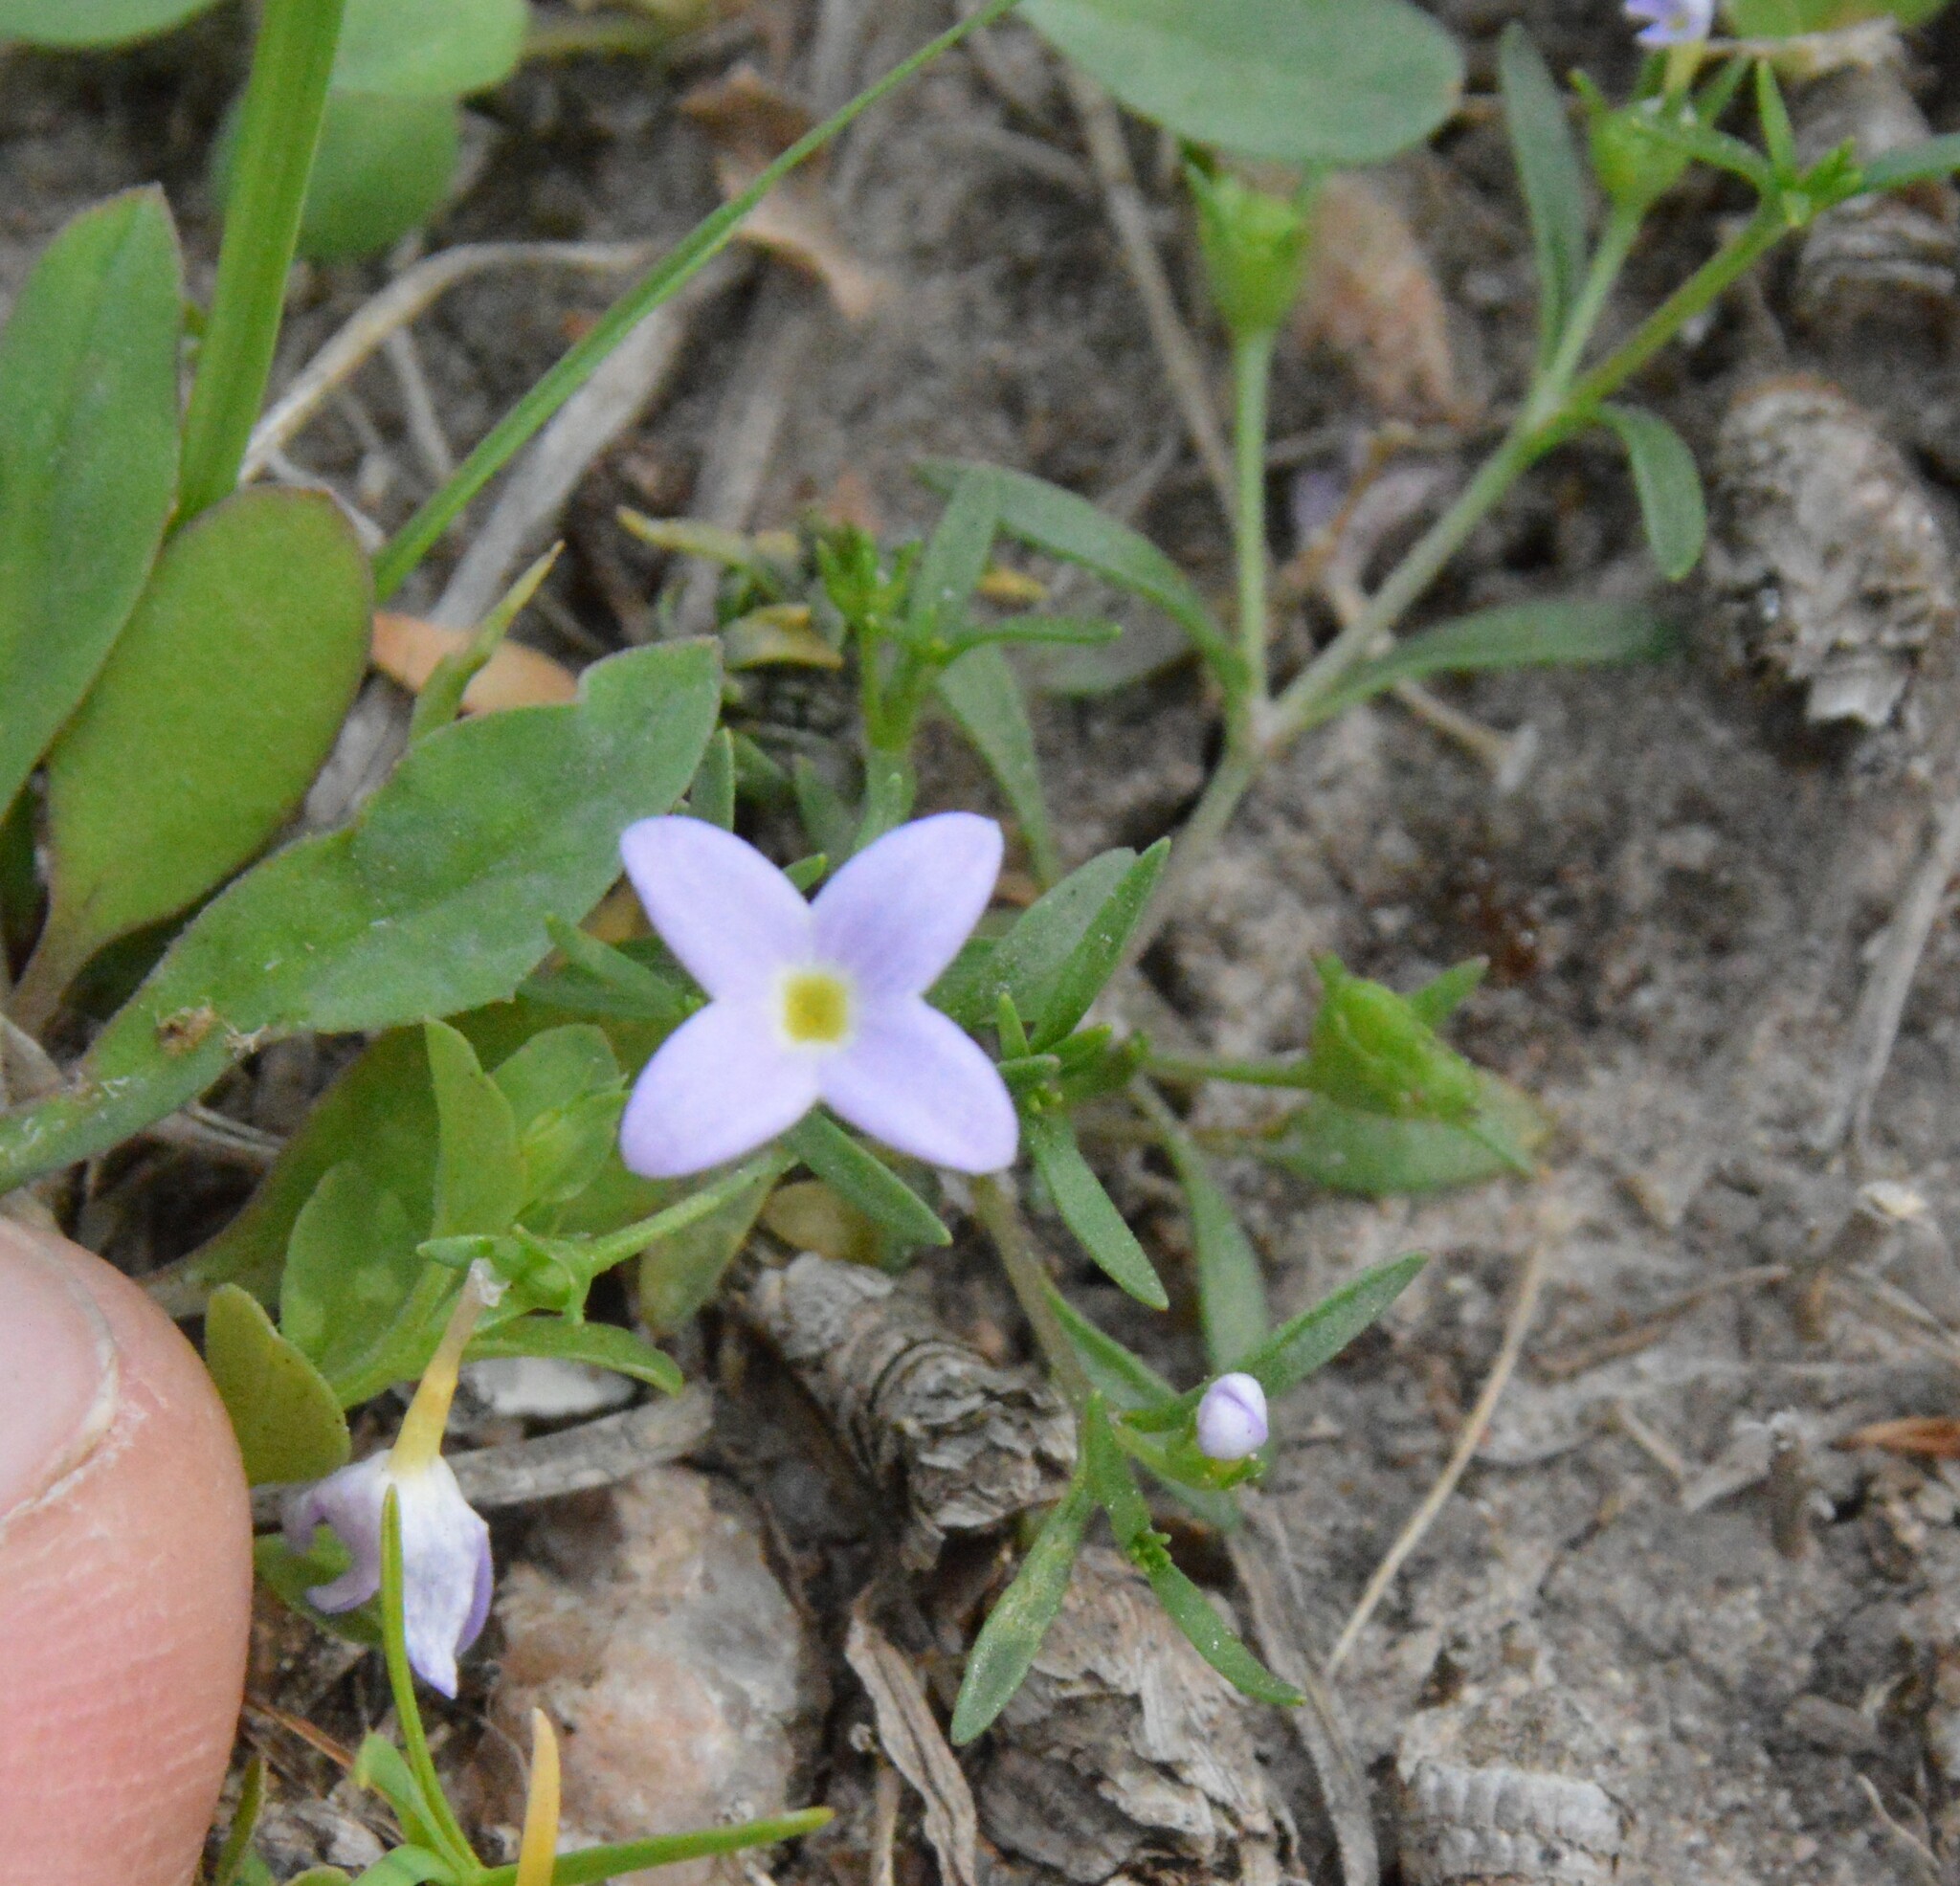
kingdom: Plantae
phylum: Tracheophyta
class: Magnoliopsida
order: Gentianales
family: Rubiaceae
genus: Houstonia
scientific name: Houstonia rosea
